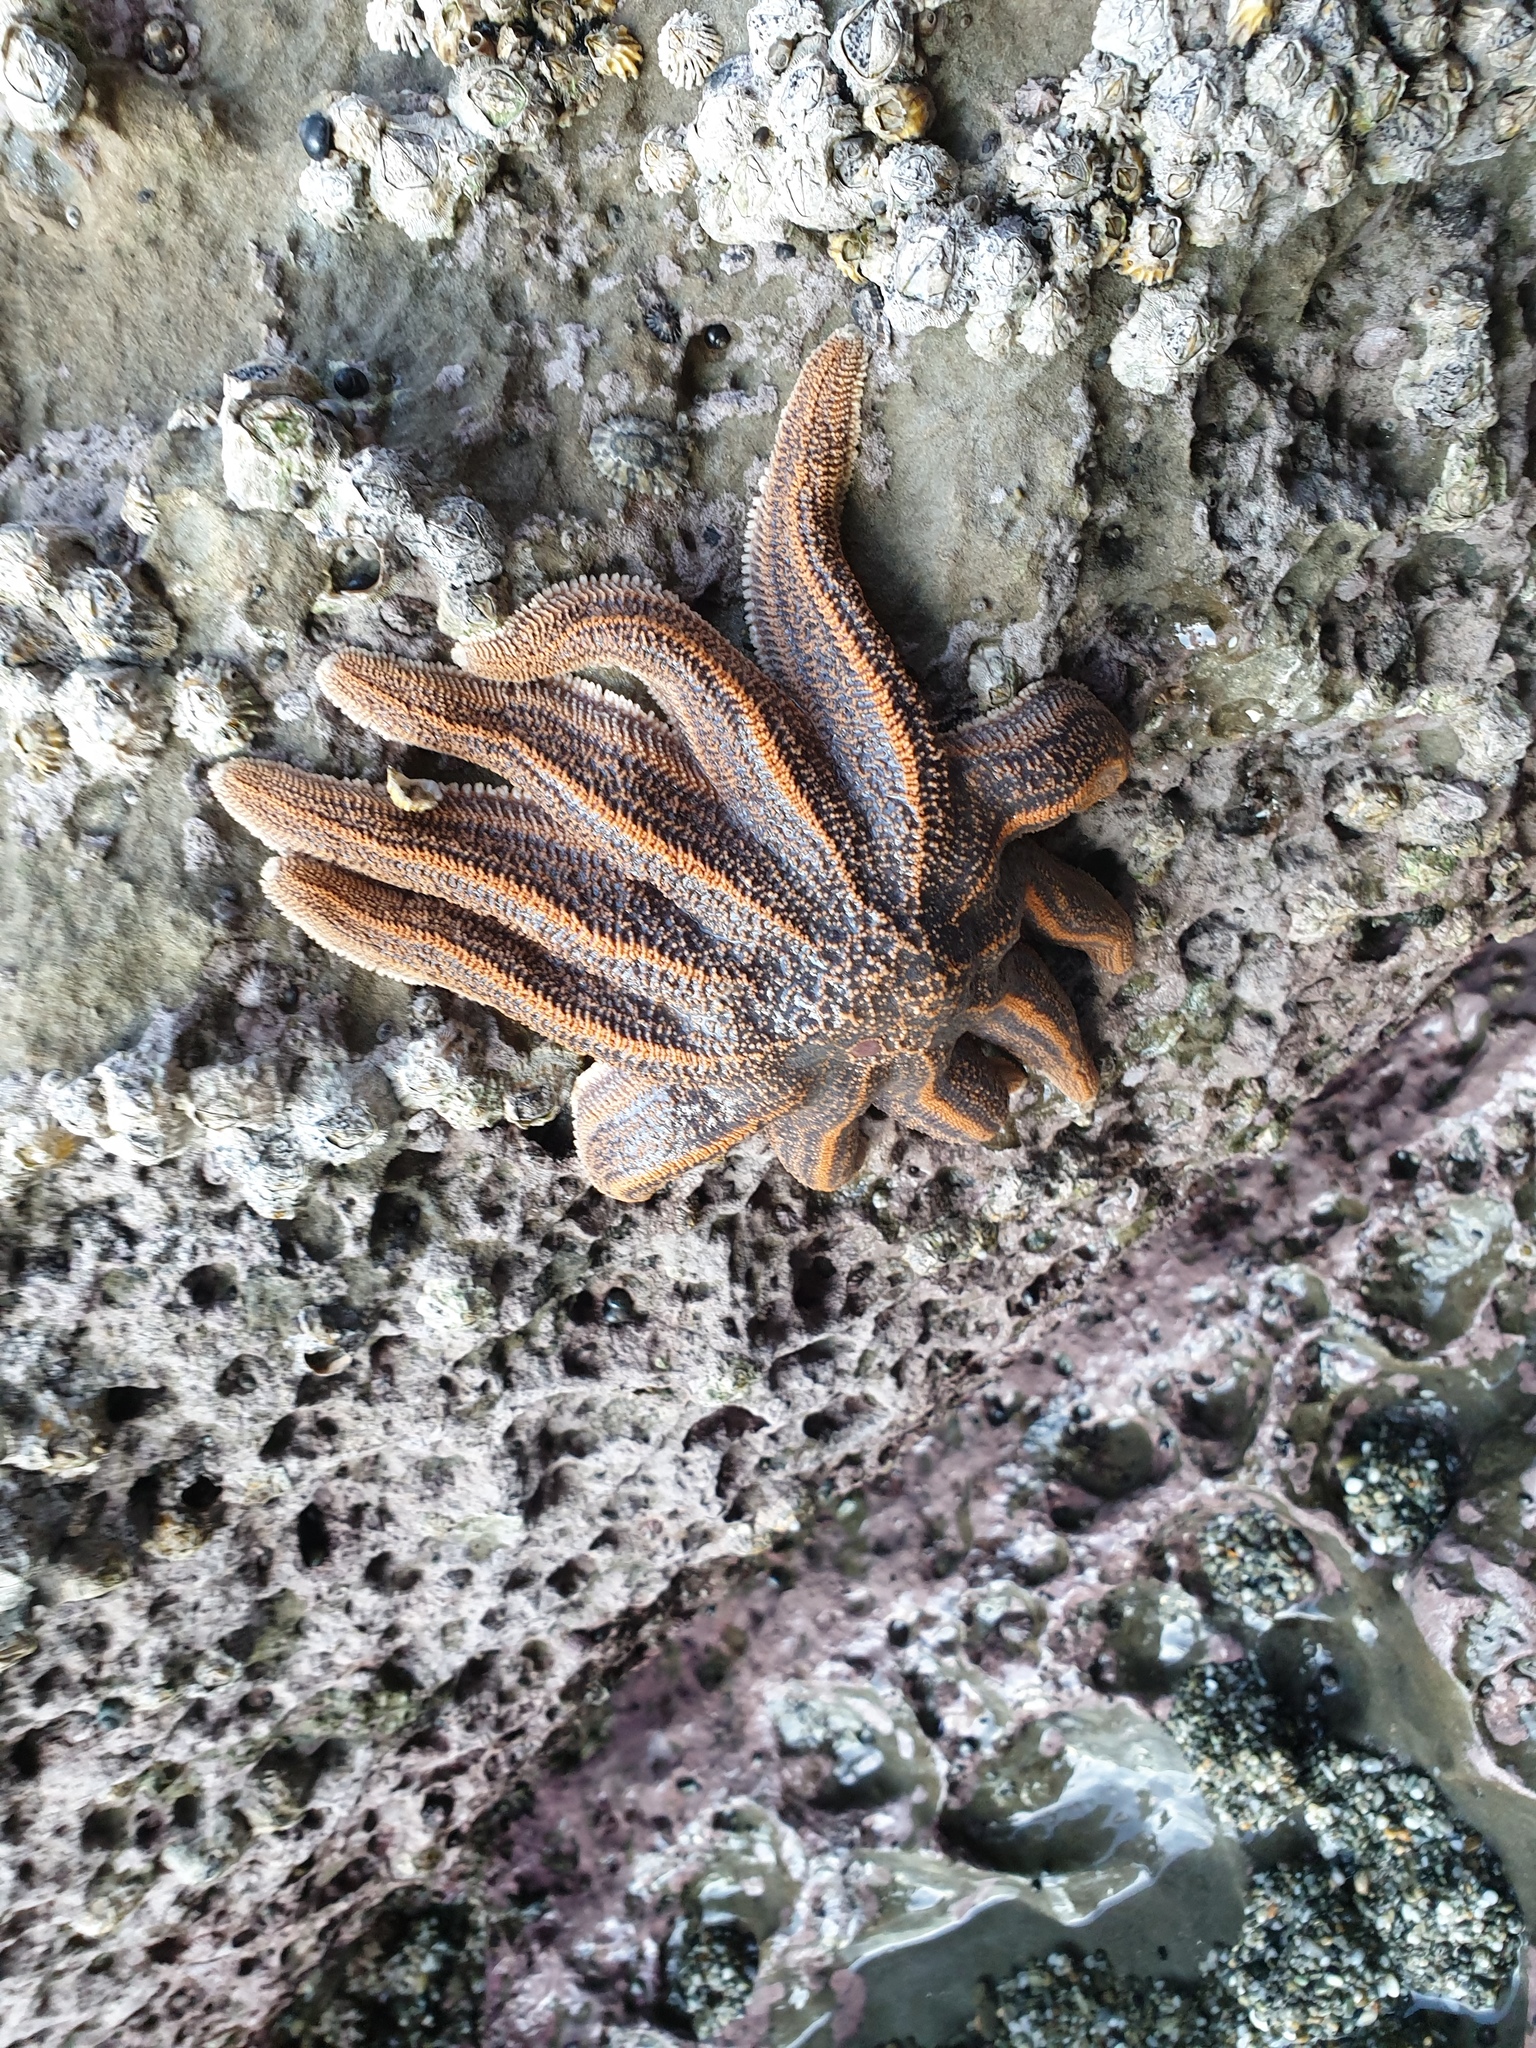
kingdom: Animalia
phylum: Echinodermata
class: Asteroidea
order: Forcipulatida
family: Stichasteridae
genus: Stichaster
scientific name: Stichaster australis
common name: Reef starfish
